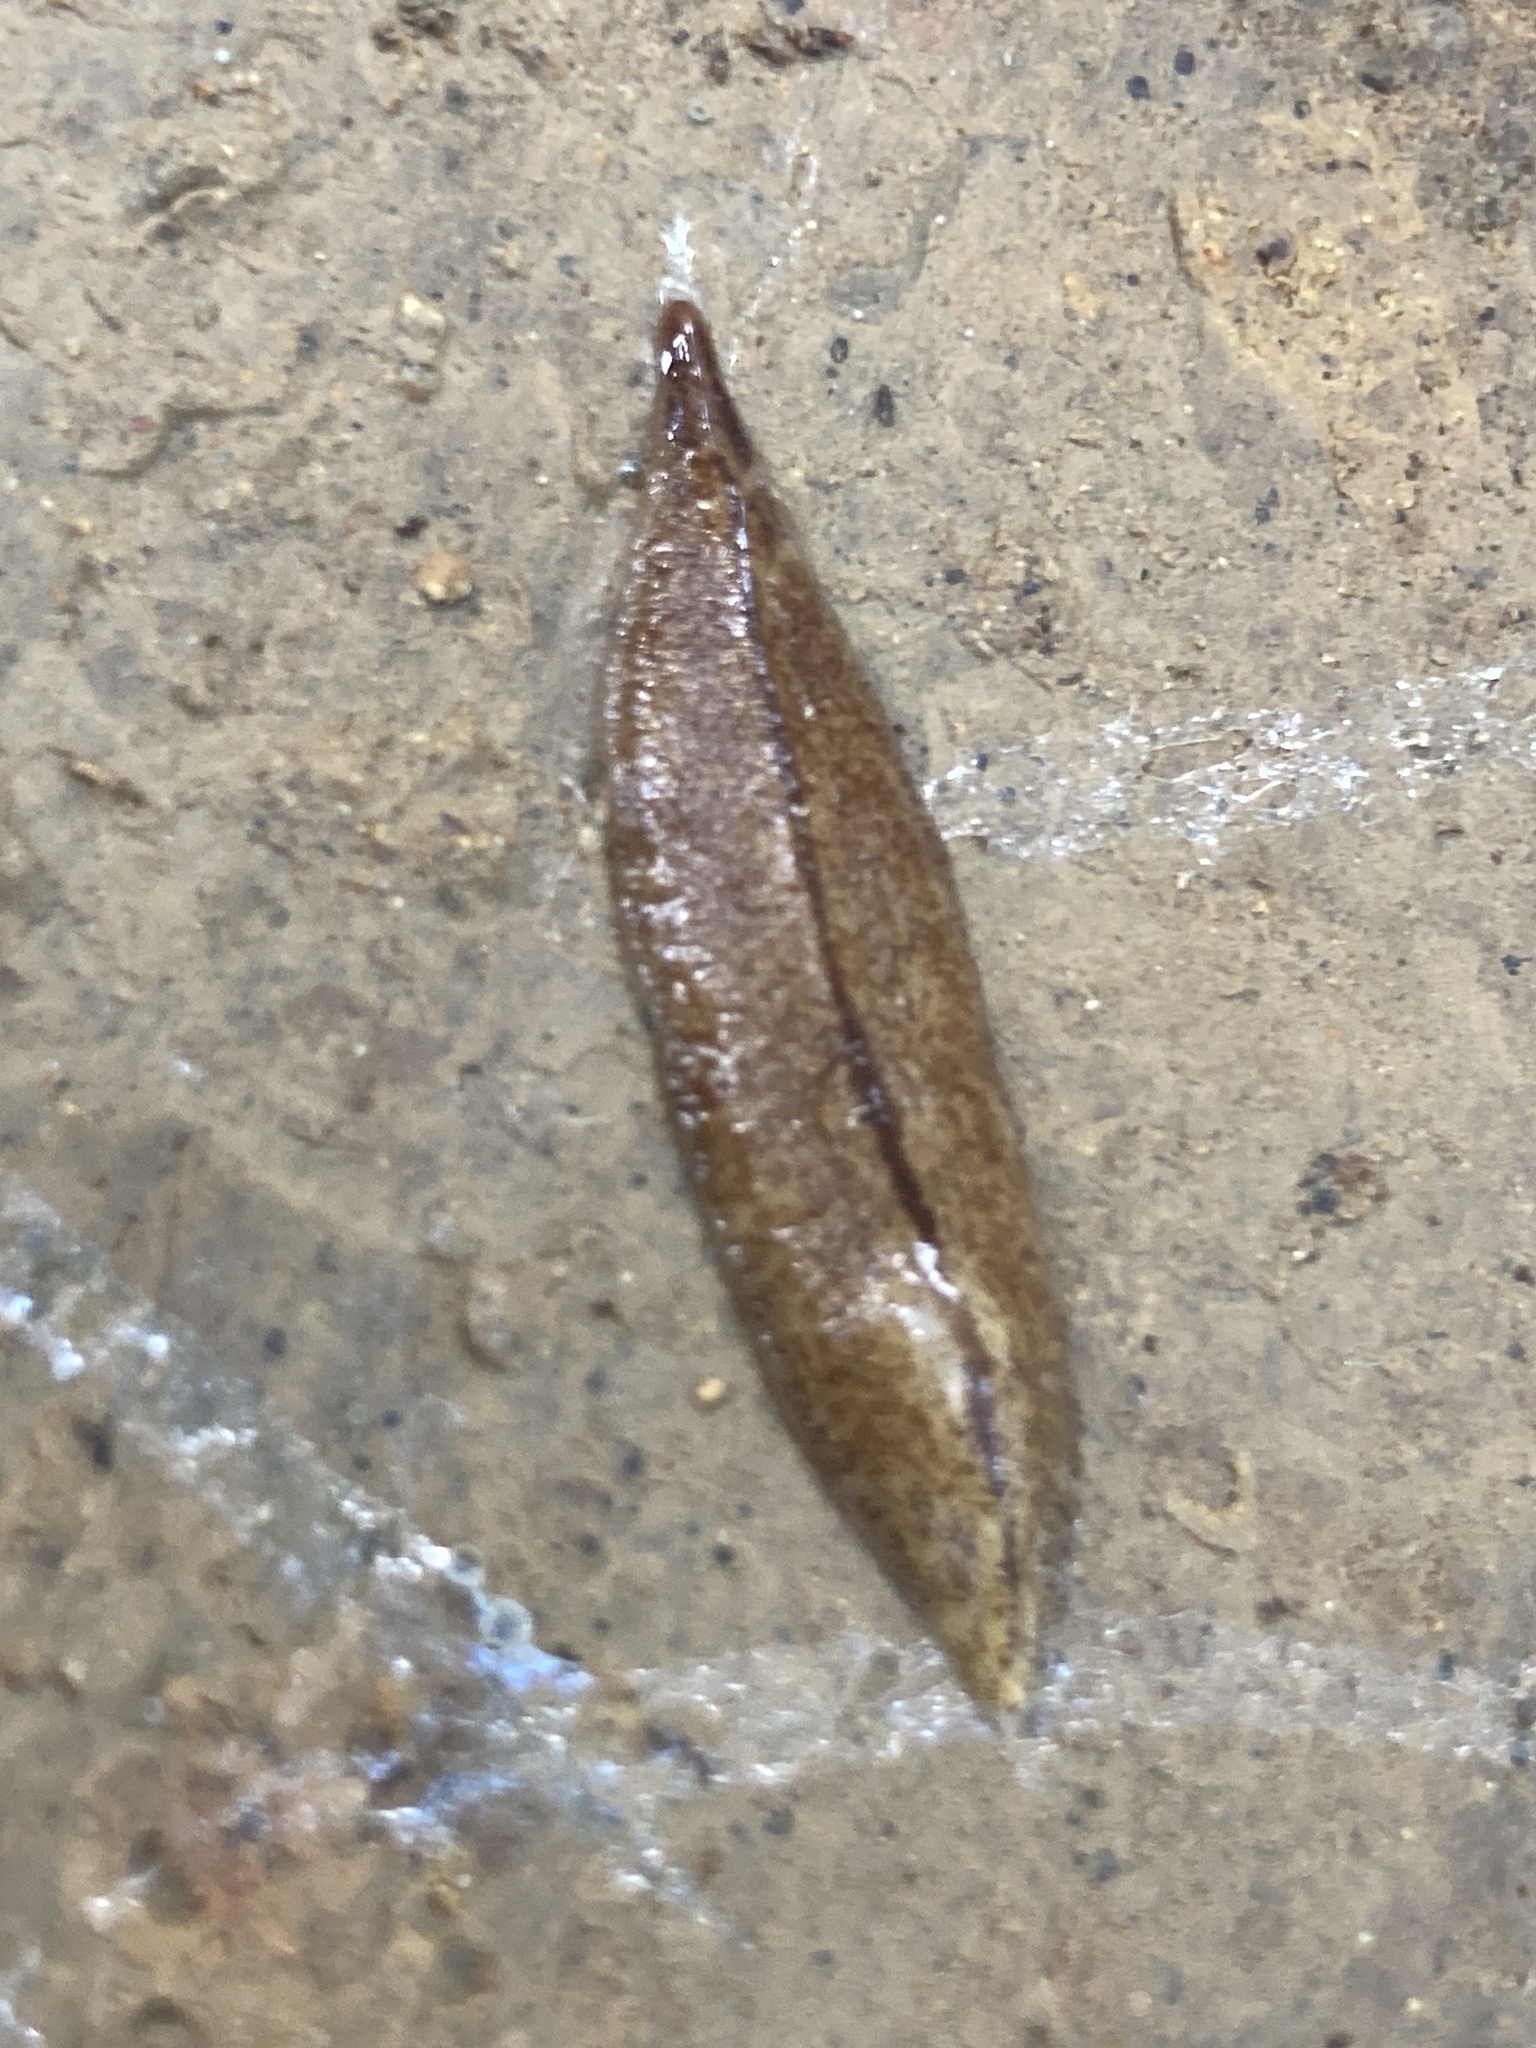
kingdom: Animalia
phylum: Platyhelminthes
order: Tricladida
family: Geoplanidae
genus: Reomkago
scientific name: Reomkago quadrangulatus
